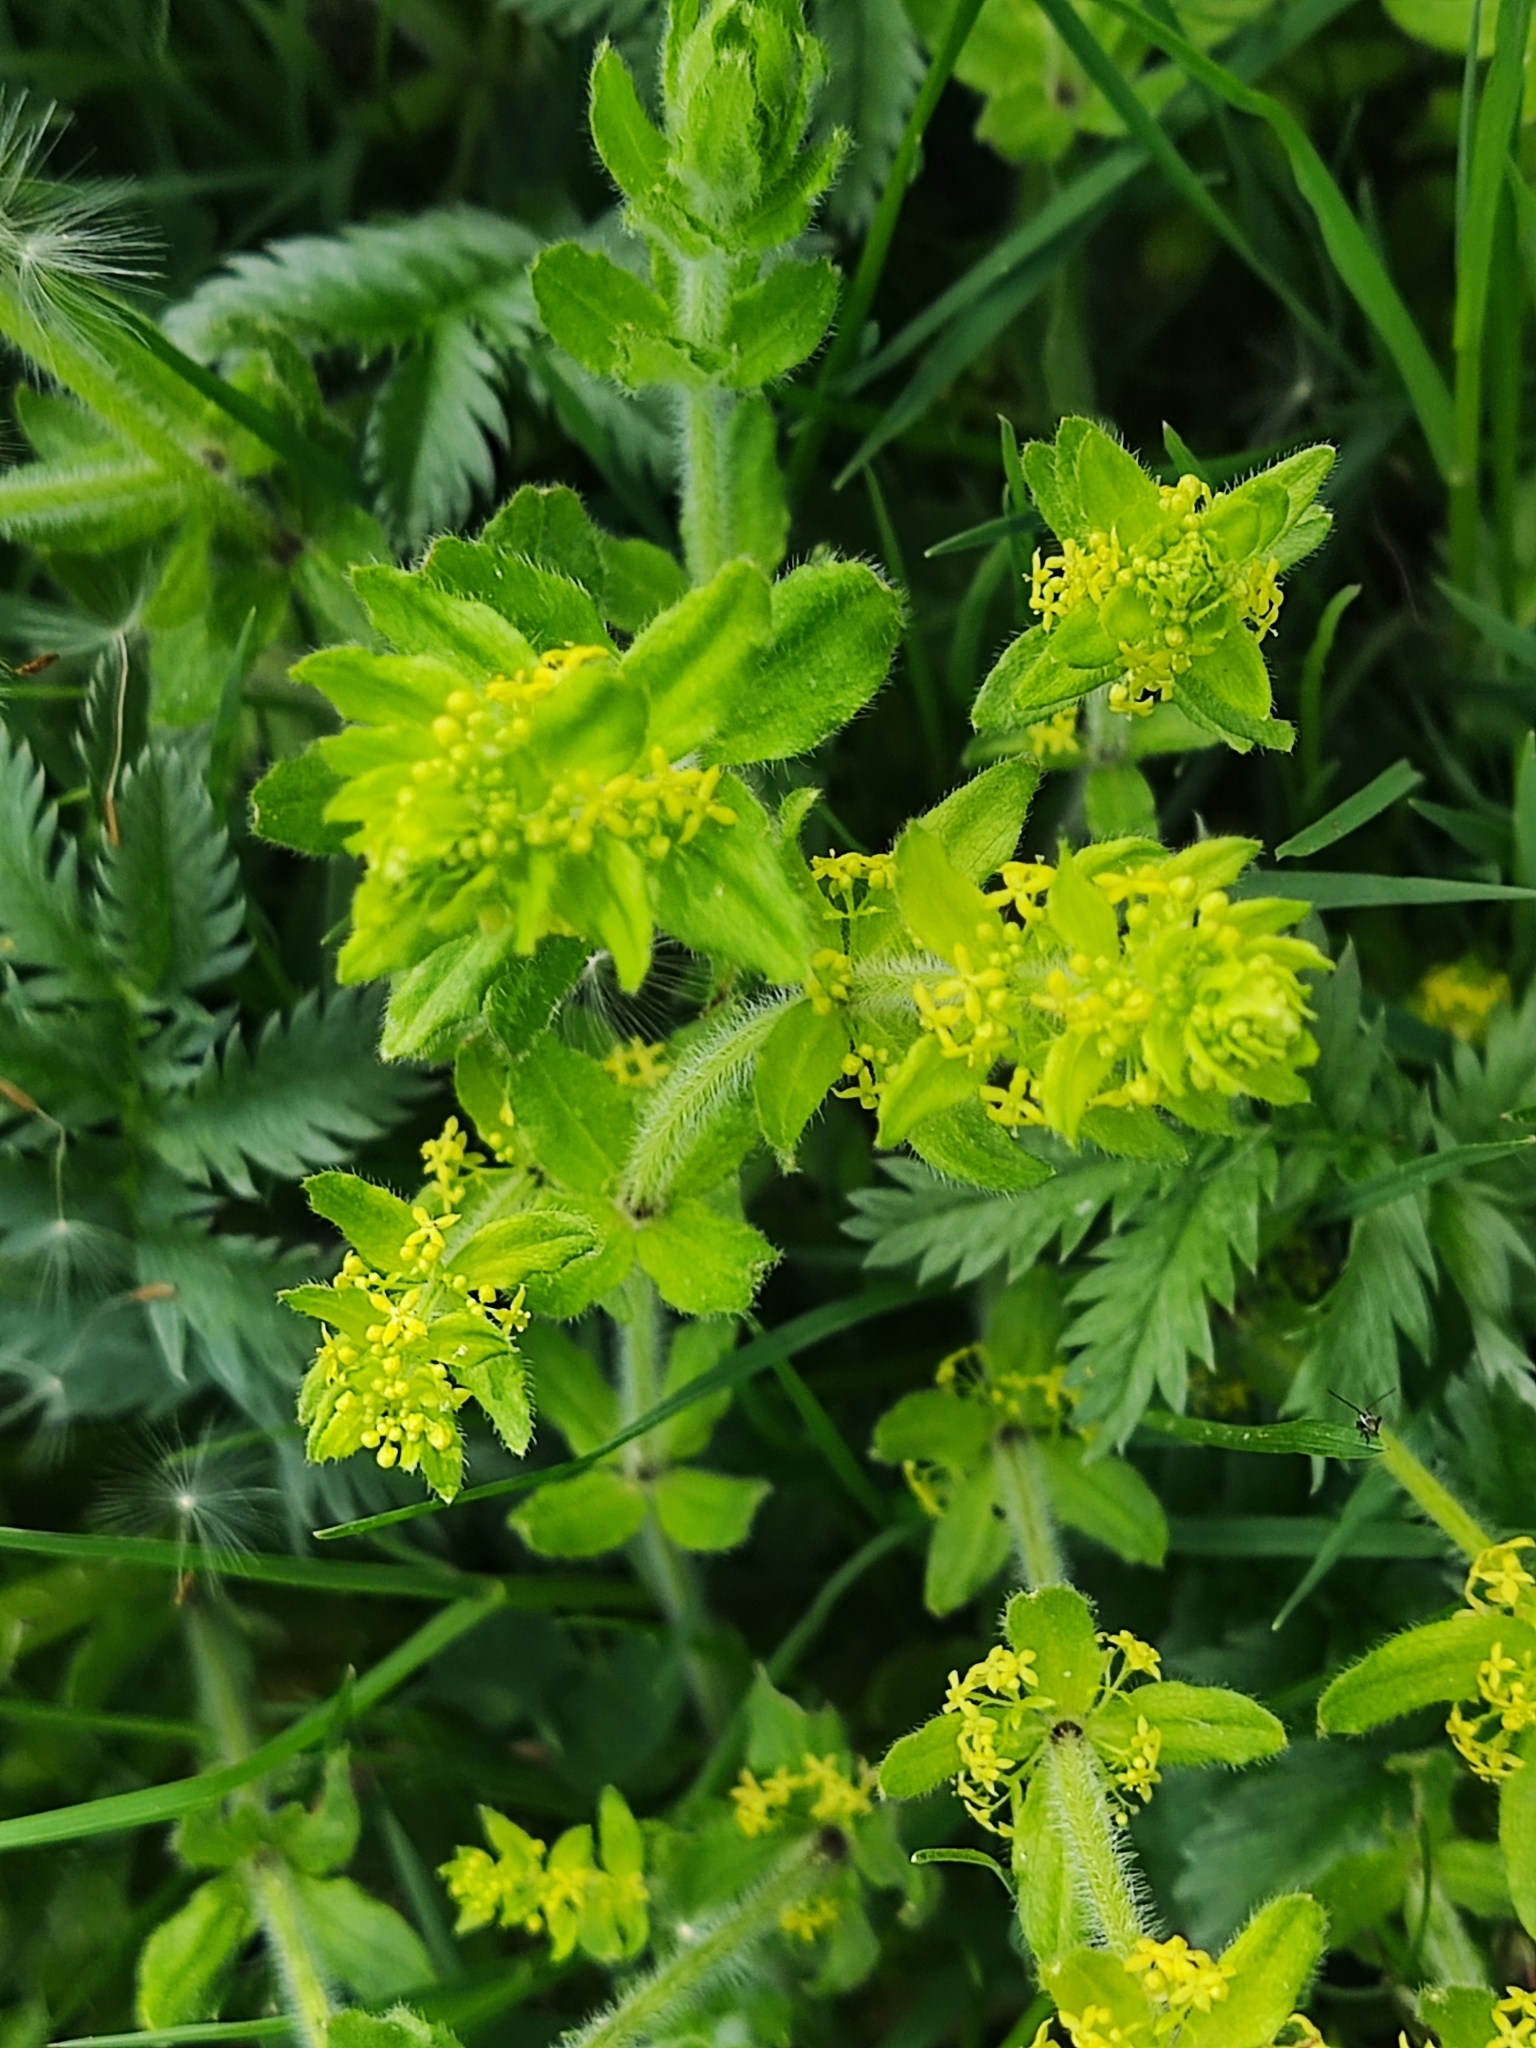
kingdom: Plantae
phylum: Tracheophyta
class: Magnoliopsida
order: Gentianales
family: Rubiaceae
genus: Cruciata
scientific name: Cruciata laevipes
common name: Crosswort
